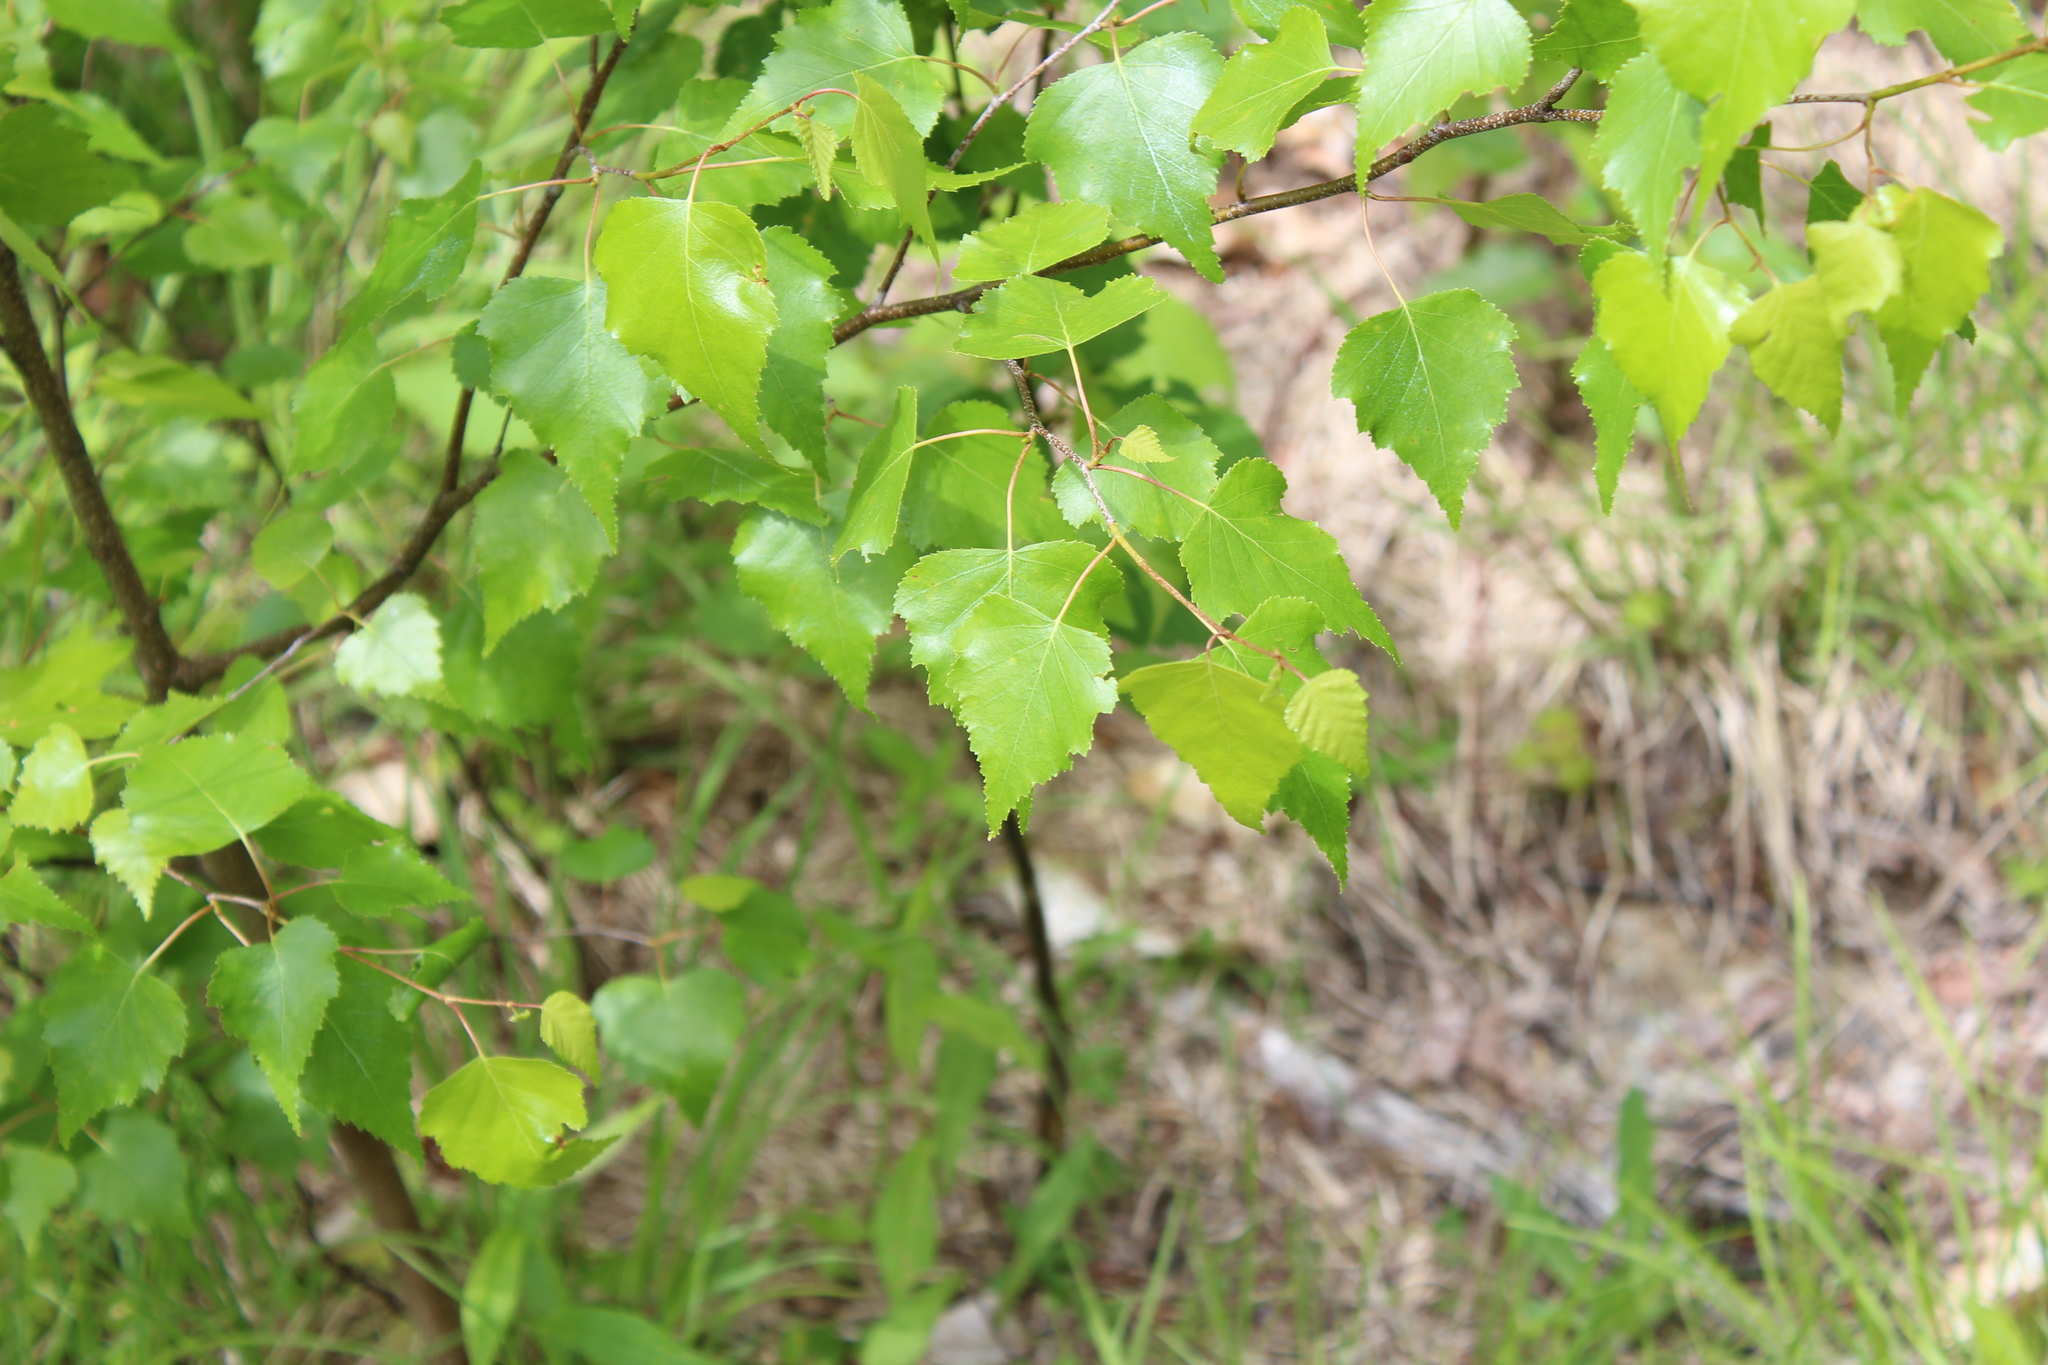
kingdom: Plantae
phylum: Tracheophyta
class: Magnoliopsida
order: Fagales
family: Betulaceae
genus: Betula
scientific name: Betula populifolia
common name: Fire birch
